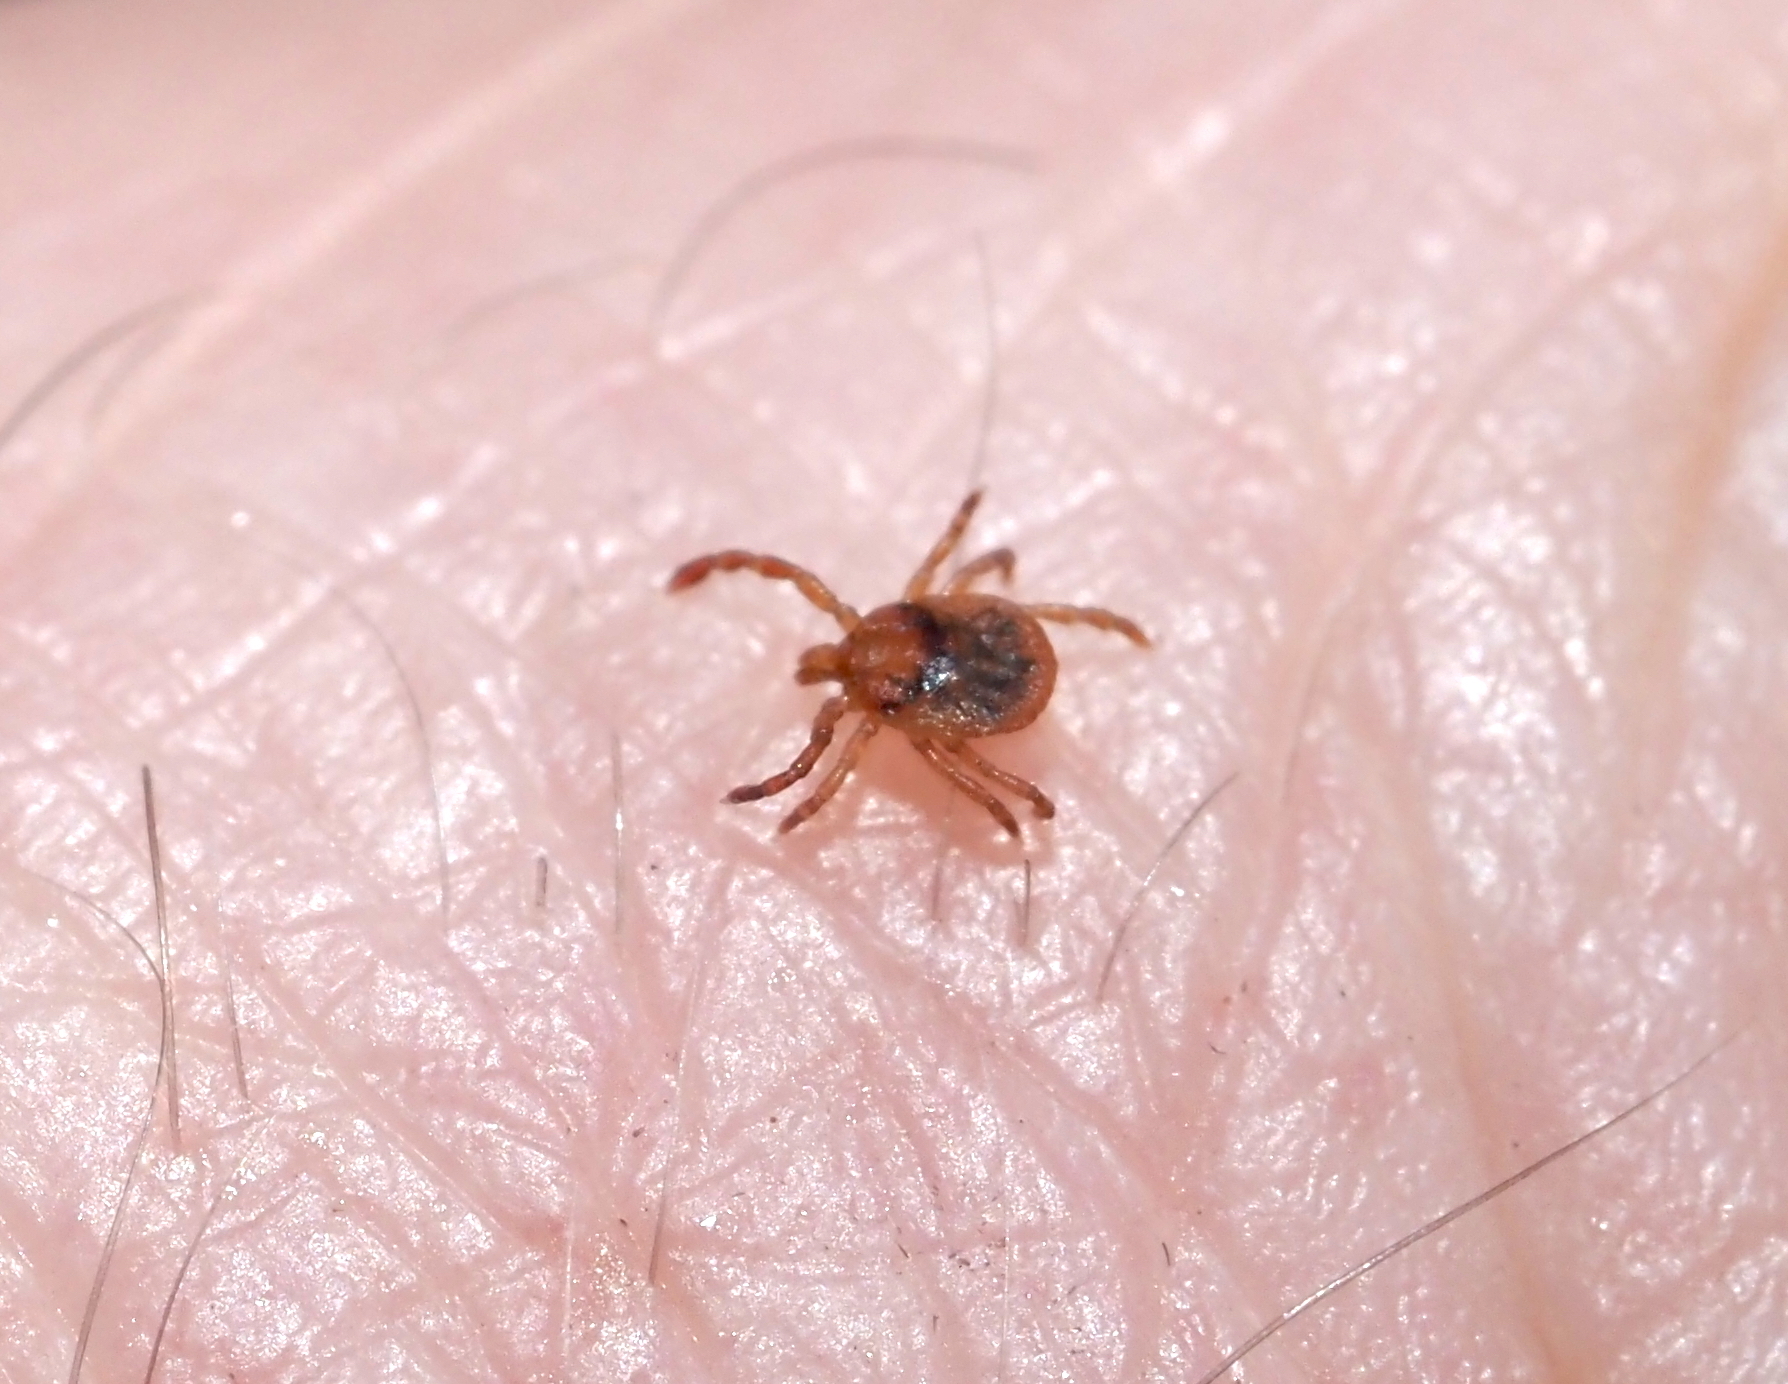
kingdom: Animalia
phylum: Arthropoda
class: Arachnida
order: Ixodida
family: Ixodidae
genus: Amblyomma
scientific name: Amblyomma americanum
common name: Lone star tick
